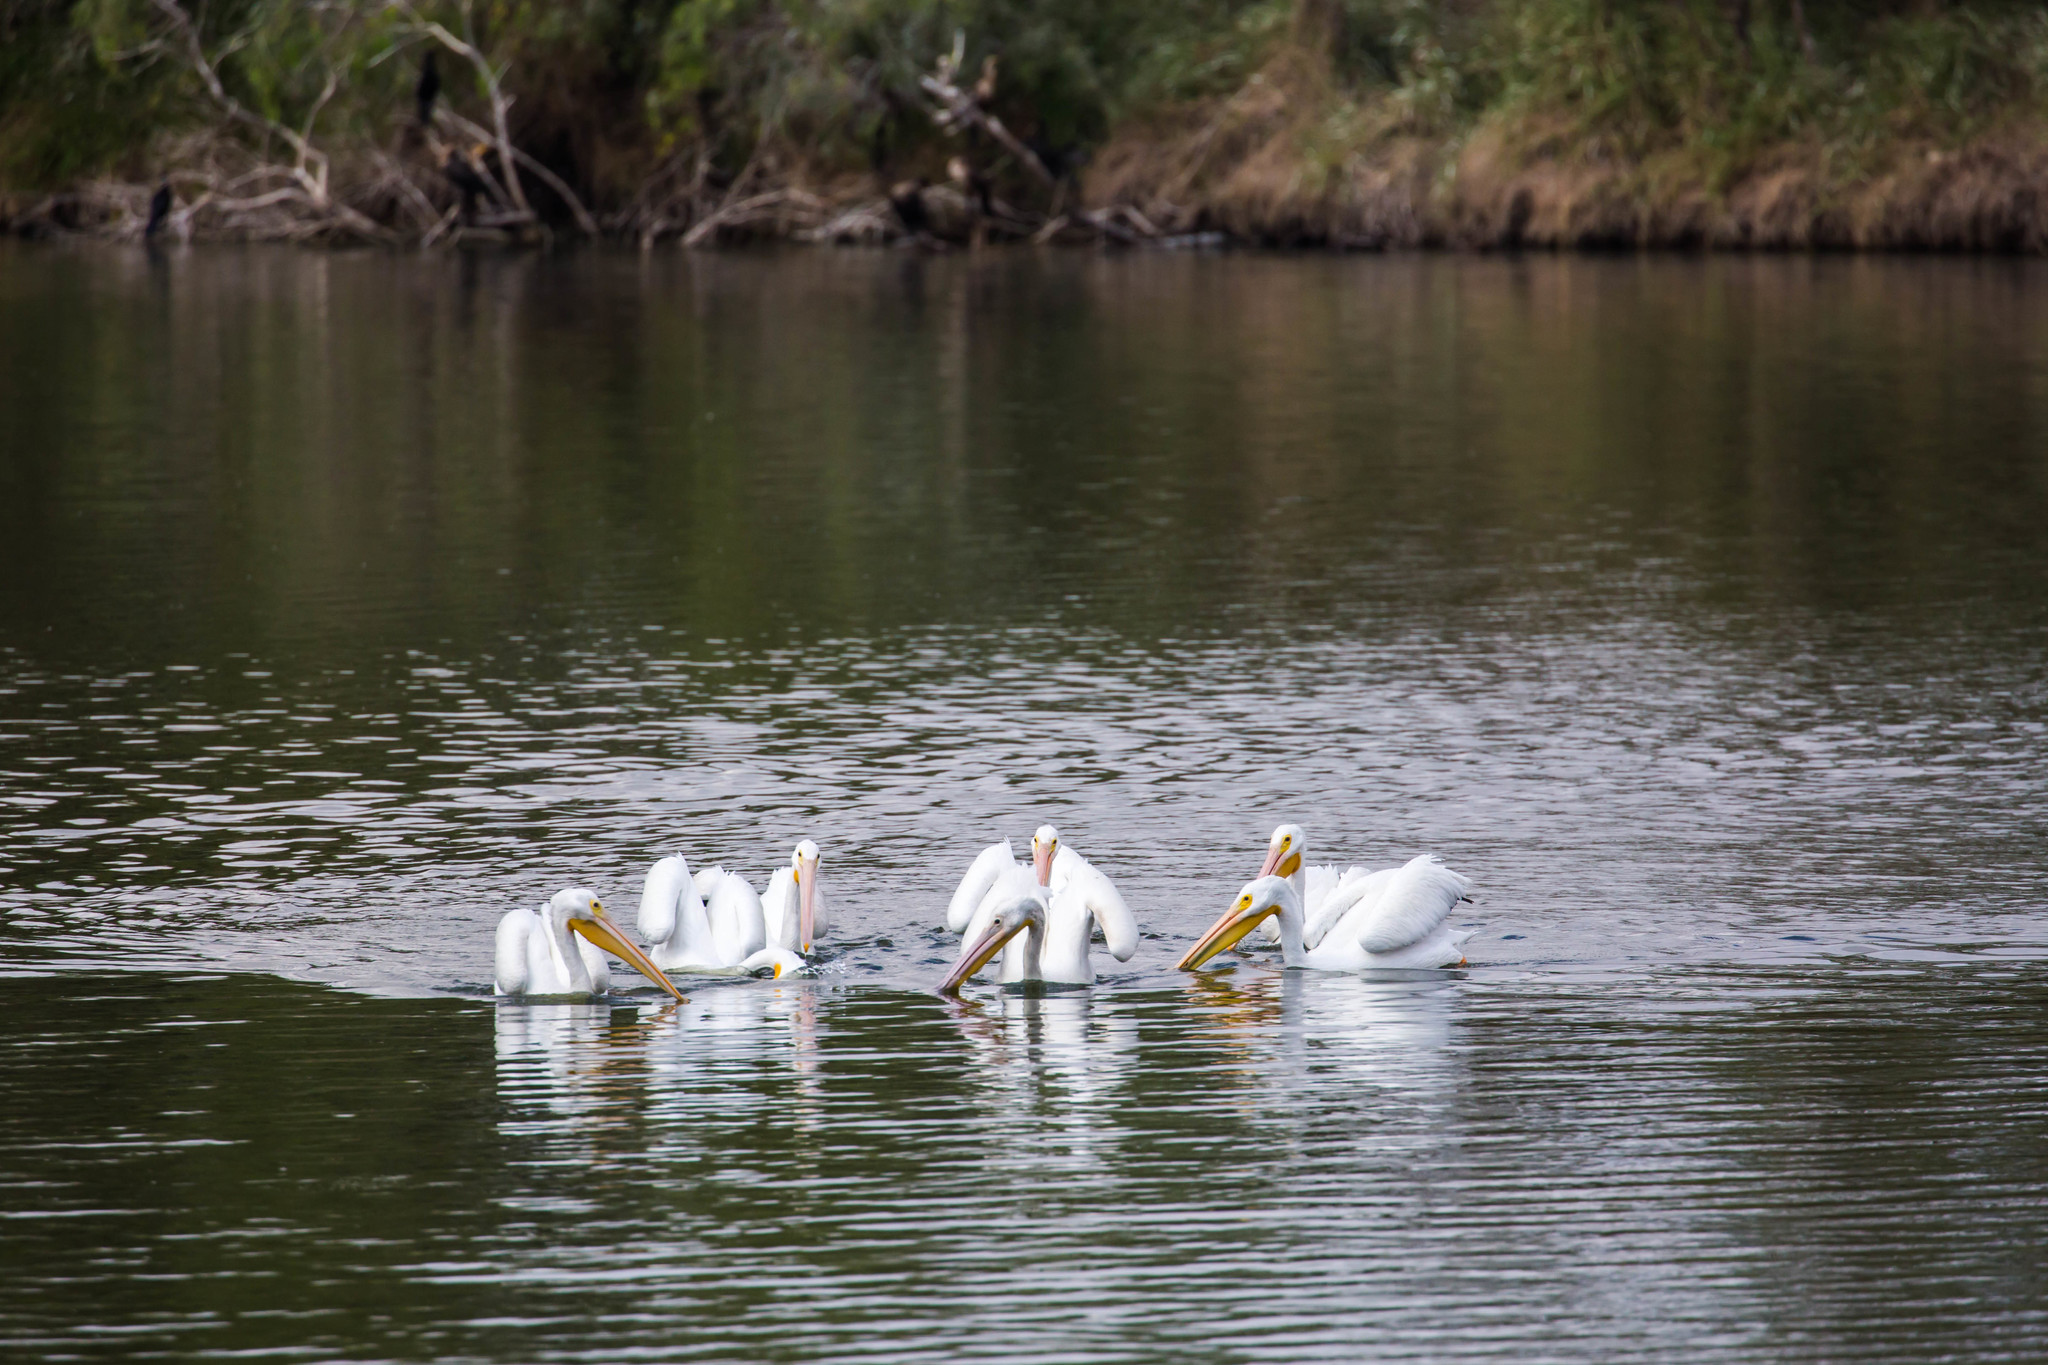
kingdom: Animalia
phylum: Chordata
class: Aves
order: Pelecaniformes
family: Pelecanidae
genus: Pelecanus
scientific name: Pelecanus erythrorhynchos
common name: American white pelican
